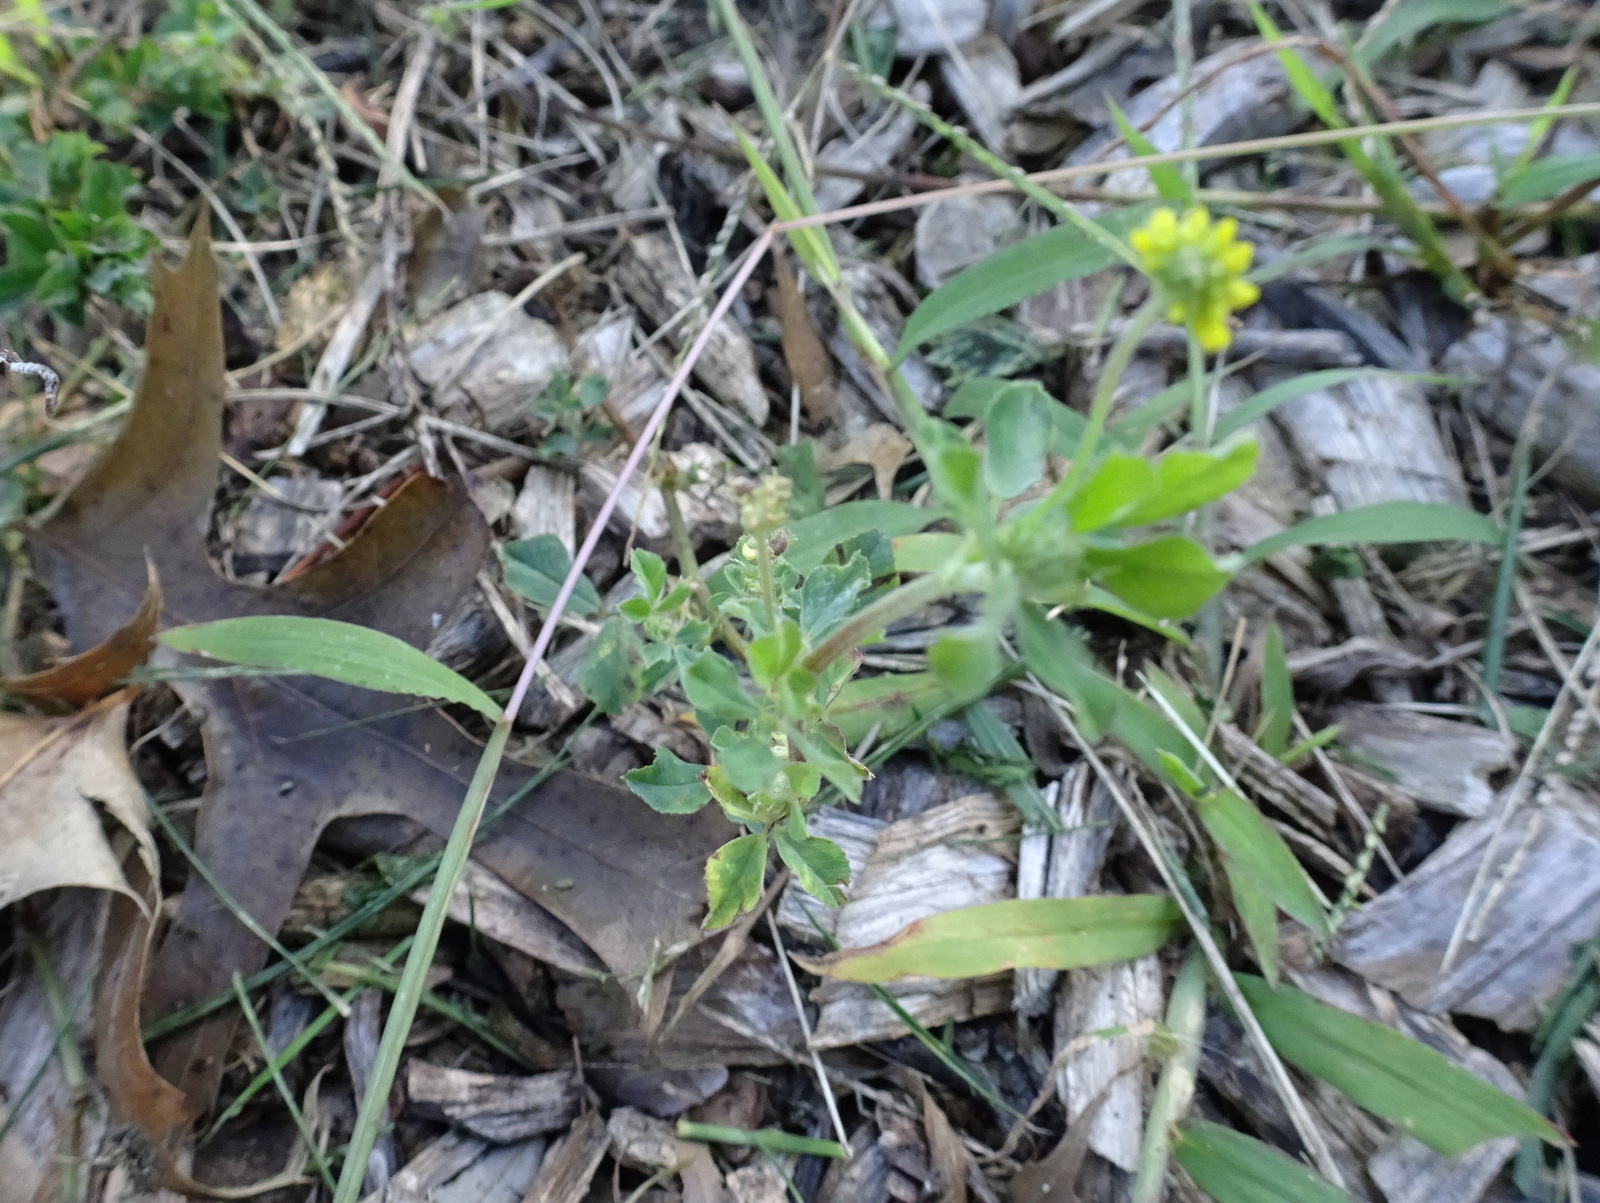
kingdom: Plantae
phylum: Tracheophyta
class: Magnoliopsida
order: Fabales
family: Fabaceae
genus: Medicago
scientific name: Medicago lupulina
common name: Black medick
